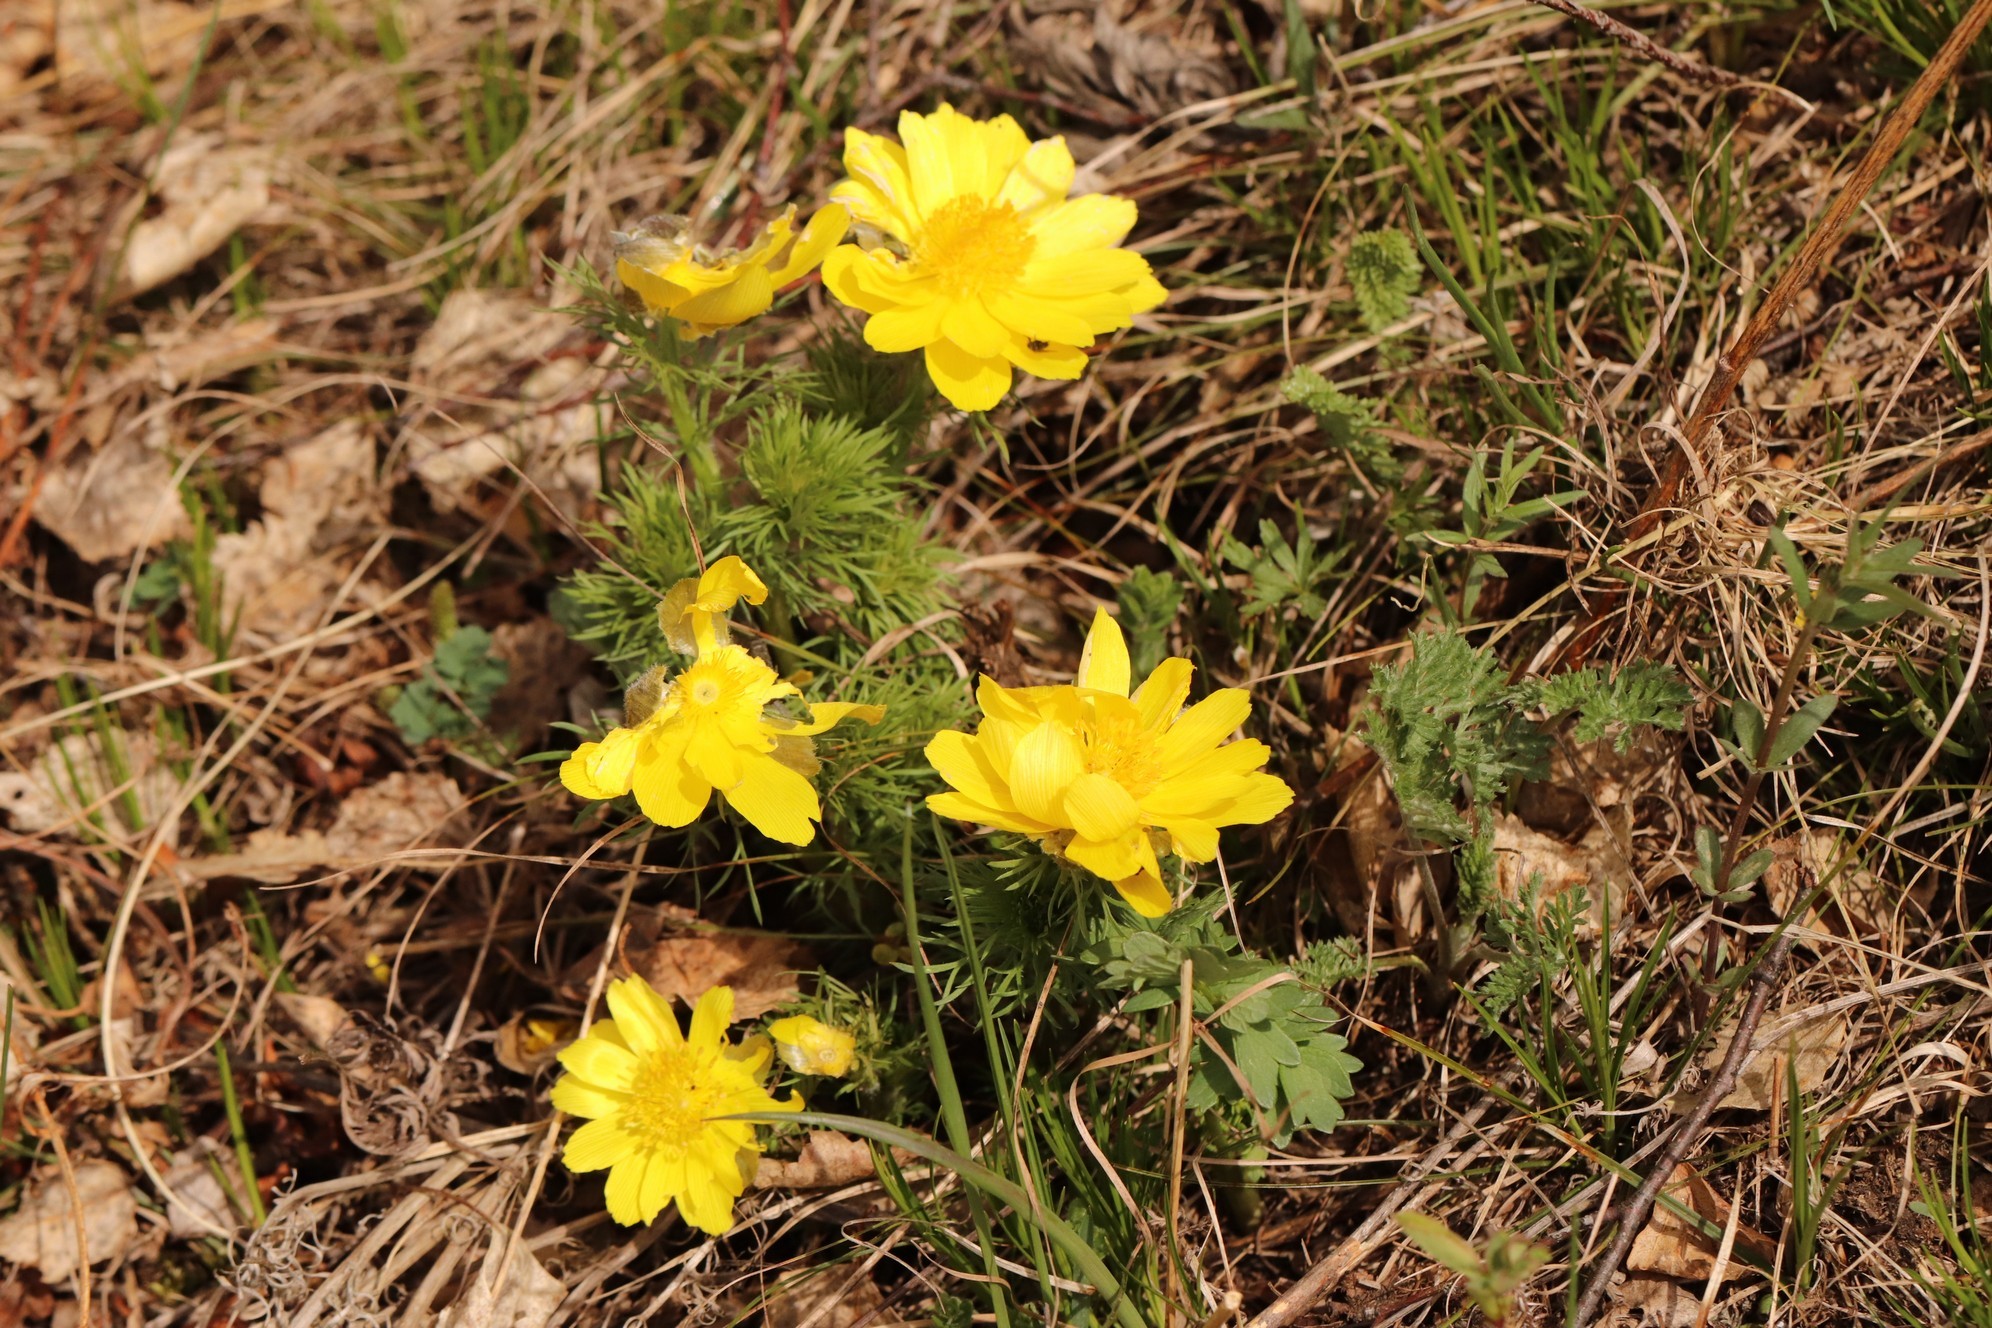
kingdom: Plantae
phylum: Tracheophyta
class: Magnoliopsida
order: Ranunculales
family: Ranunculaceae
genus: Adonis
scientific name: Adonis vernalis
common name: Yellow pheasants-eye
